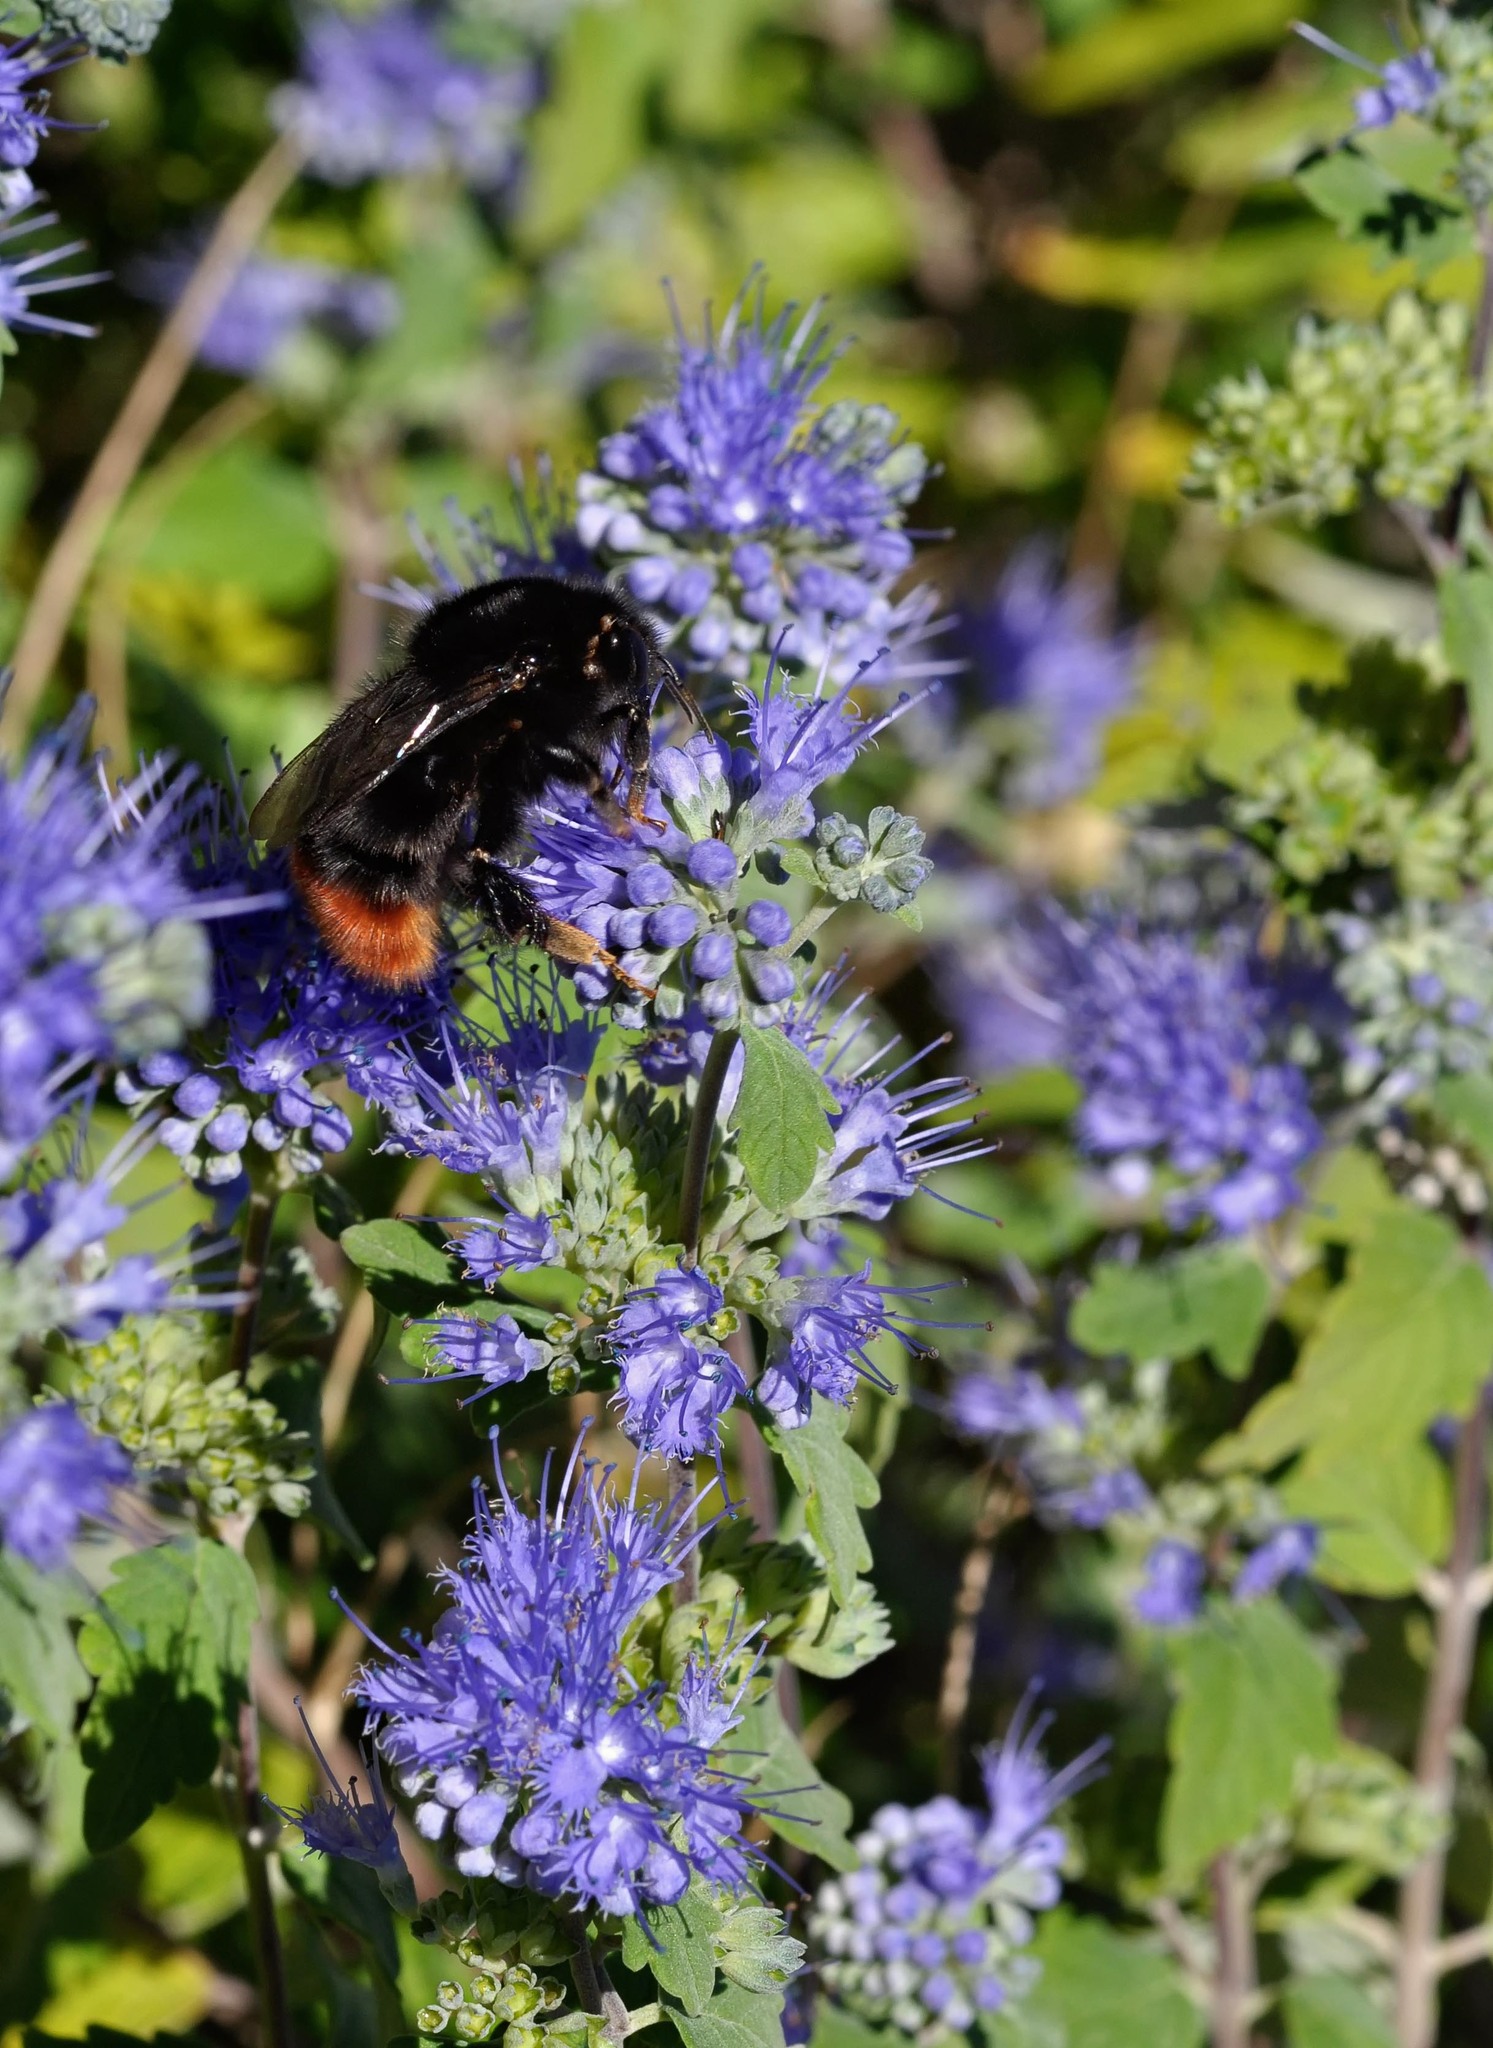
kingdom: Animalia
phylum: Arthropoda
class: Insecta
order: Hymenoptera
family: Apidae
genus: Bombus
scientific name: Bombus lapidarius
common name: Large red-tailed humble-bee
